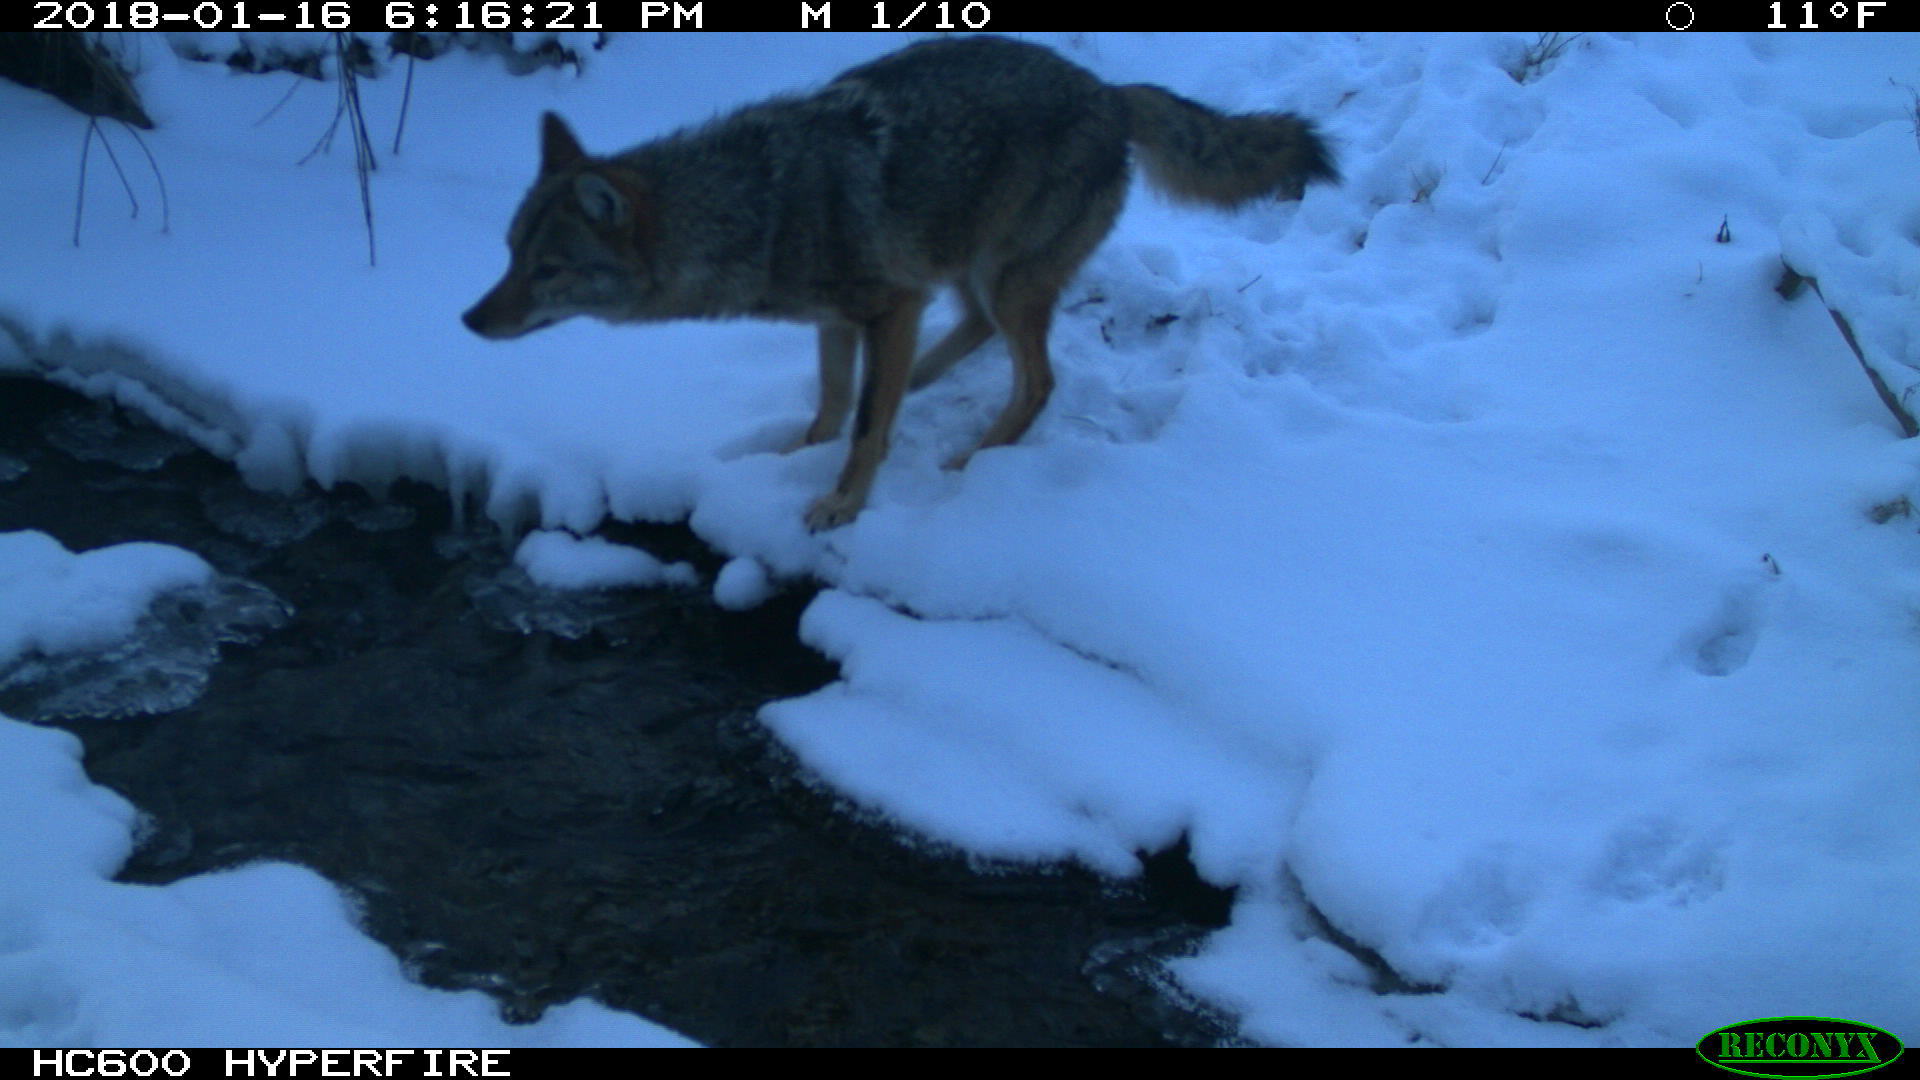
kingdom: Animalia
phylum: Chordata
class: Mammalia
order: Carnivora
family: Canidae
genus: Canis
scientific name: Canis latrans
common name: Coyote
